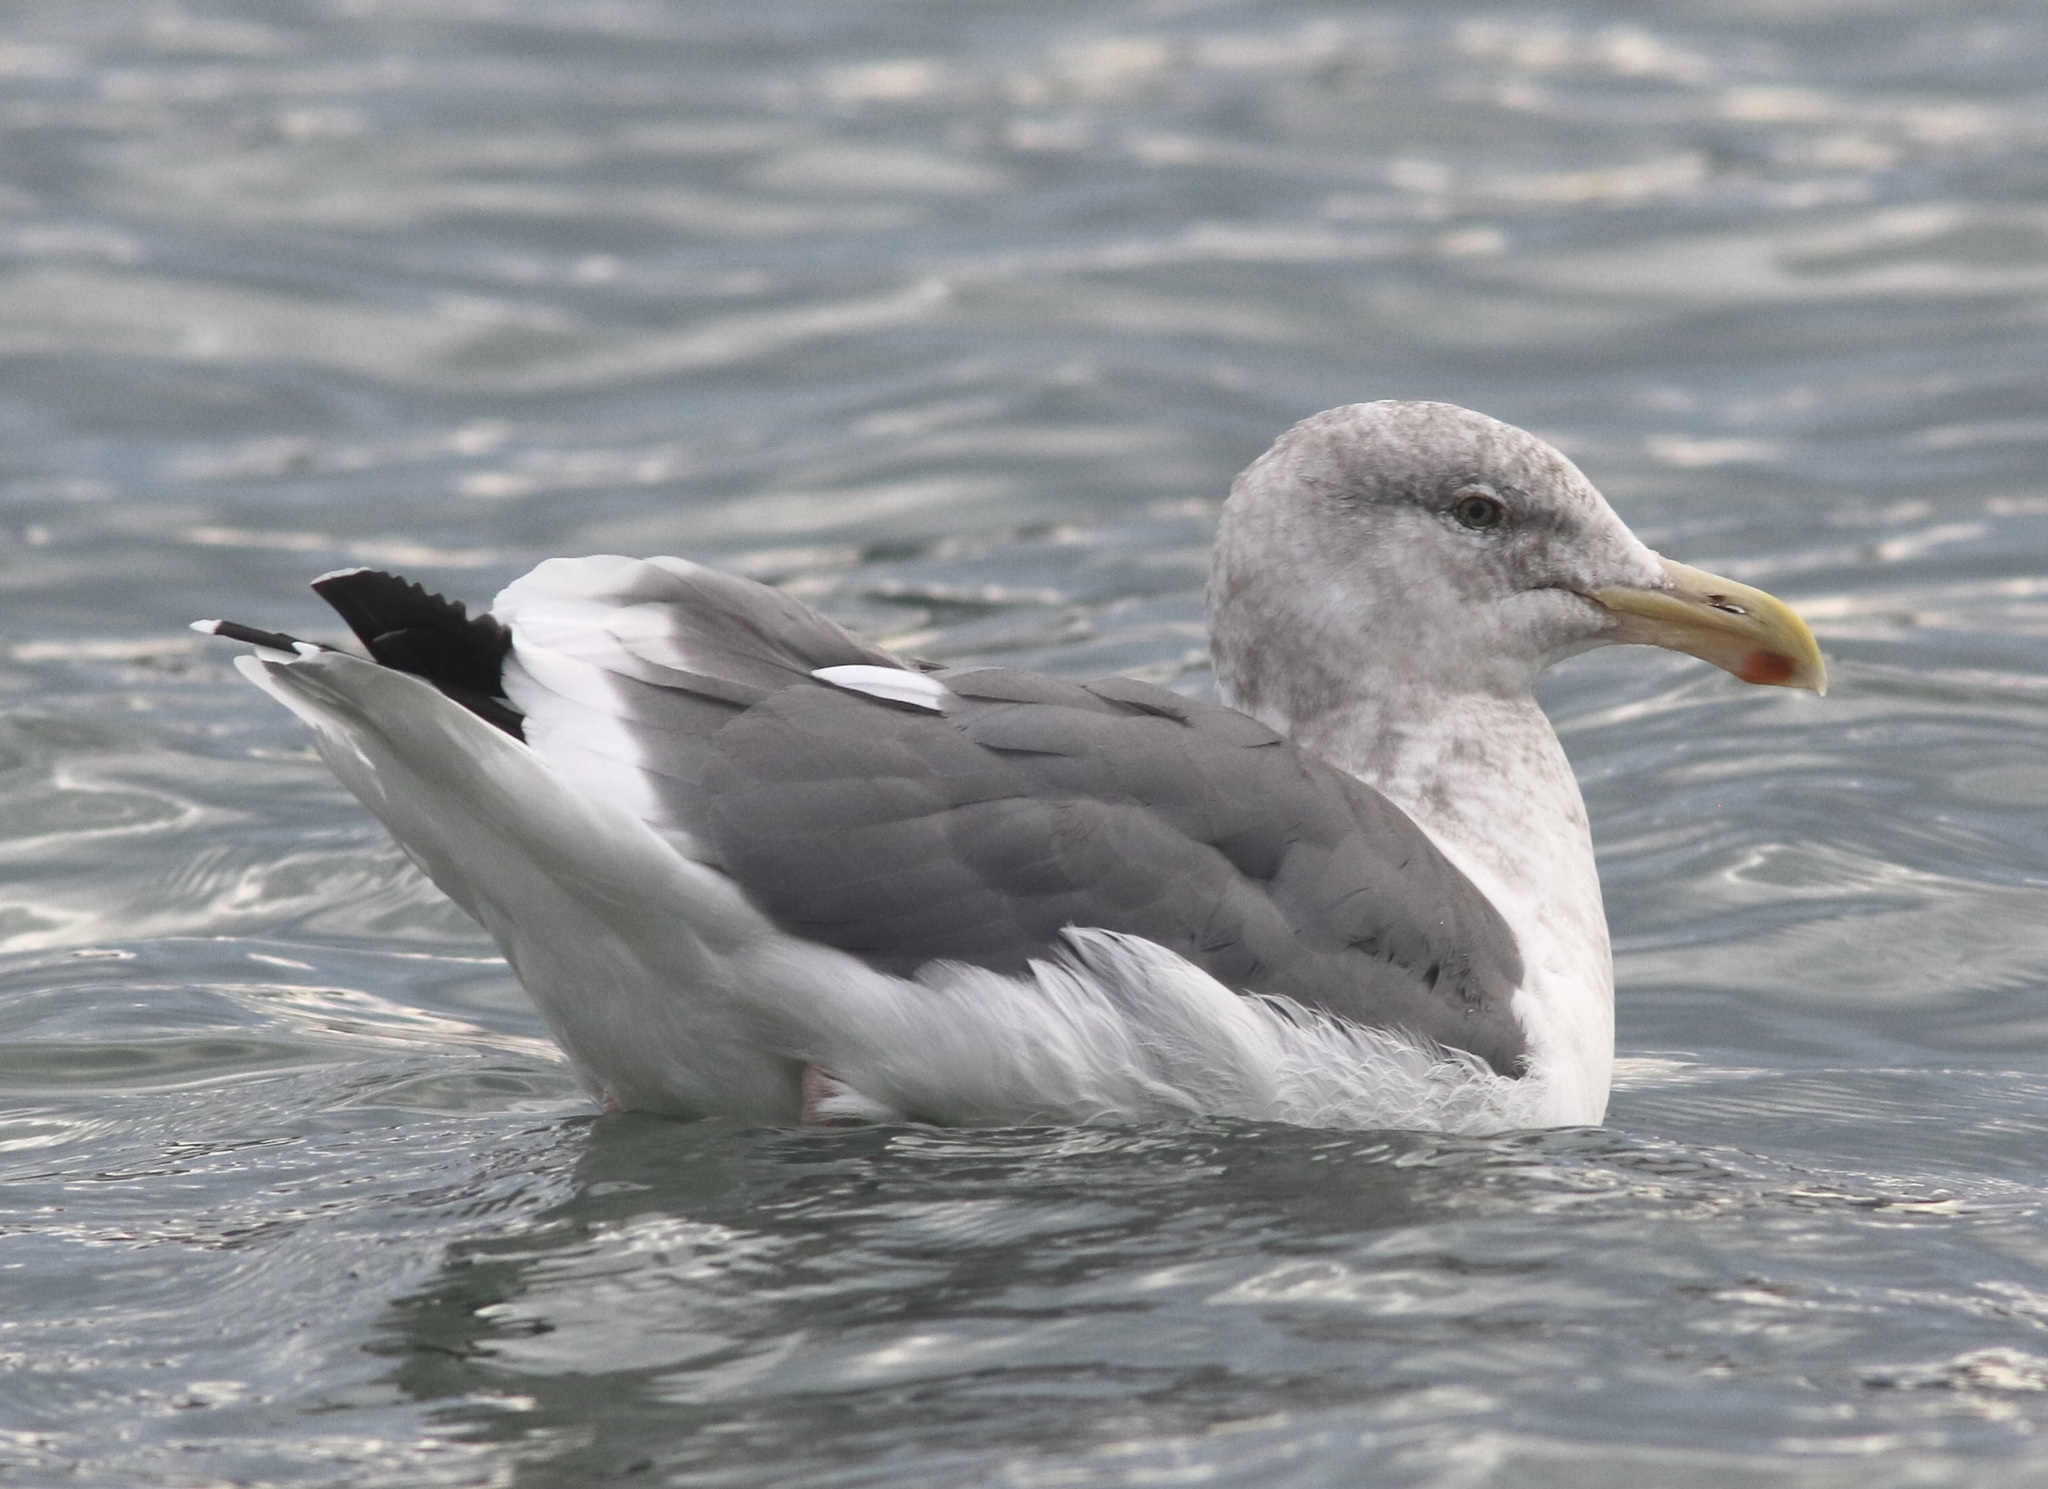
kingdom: Animalia
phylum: Chordata
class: Aves
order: Charadriiformes
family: Laridae
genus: Larus
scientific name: Larus occidentalis
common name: Western gull
